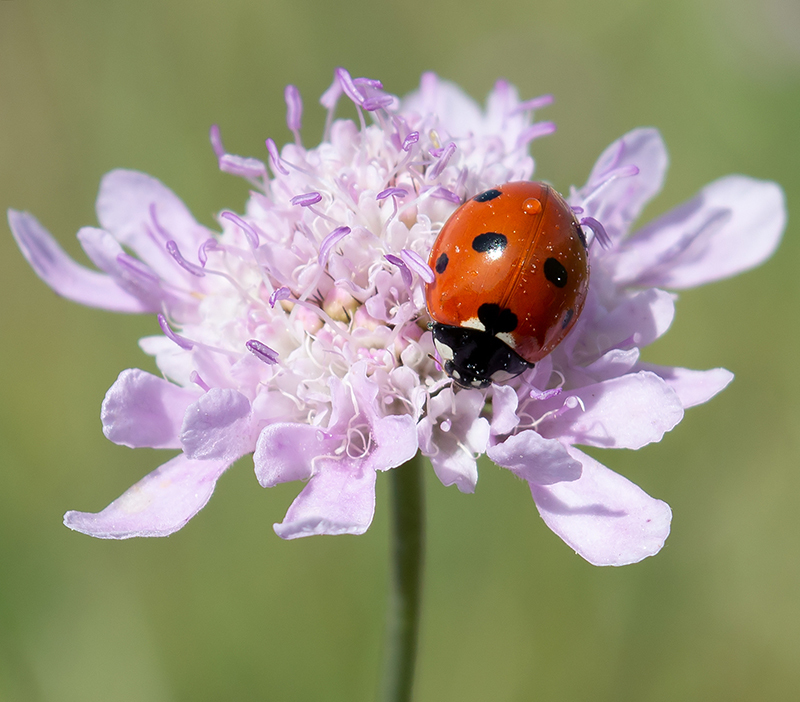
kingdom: Animalia
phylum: Arthropoda
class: Insecta
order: Coleoptera
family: Coccinellidae
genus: Coccinella
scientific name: Coccinella septempunctata
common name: Sevenspotted lady beetle
